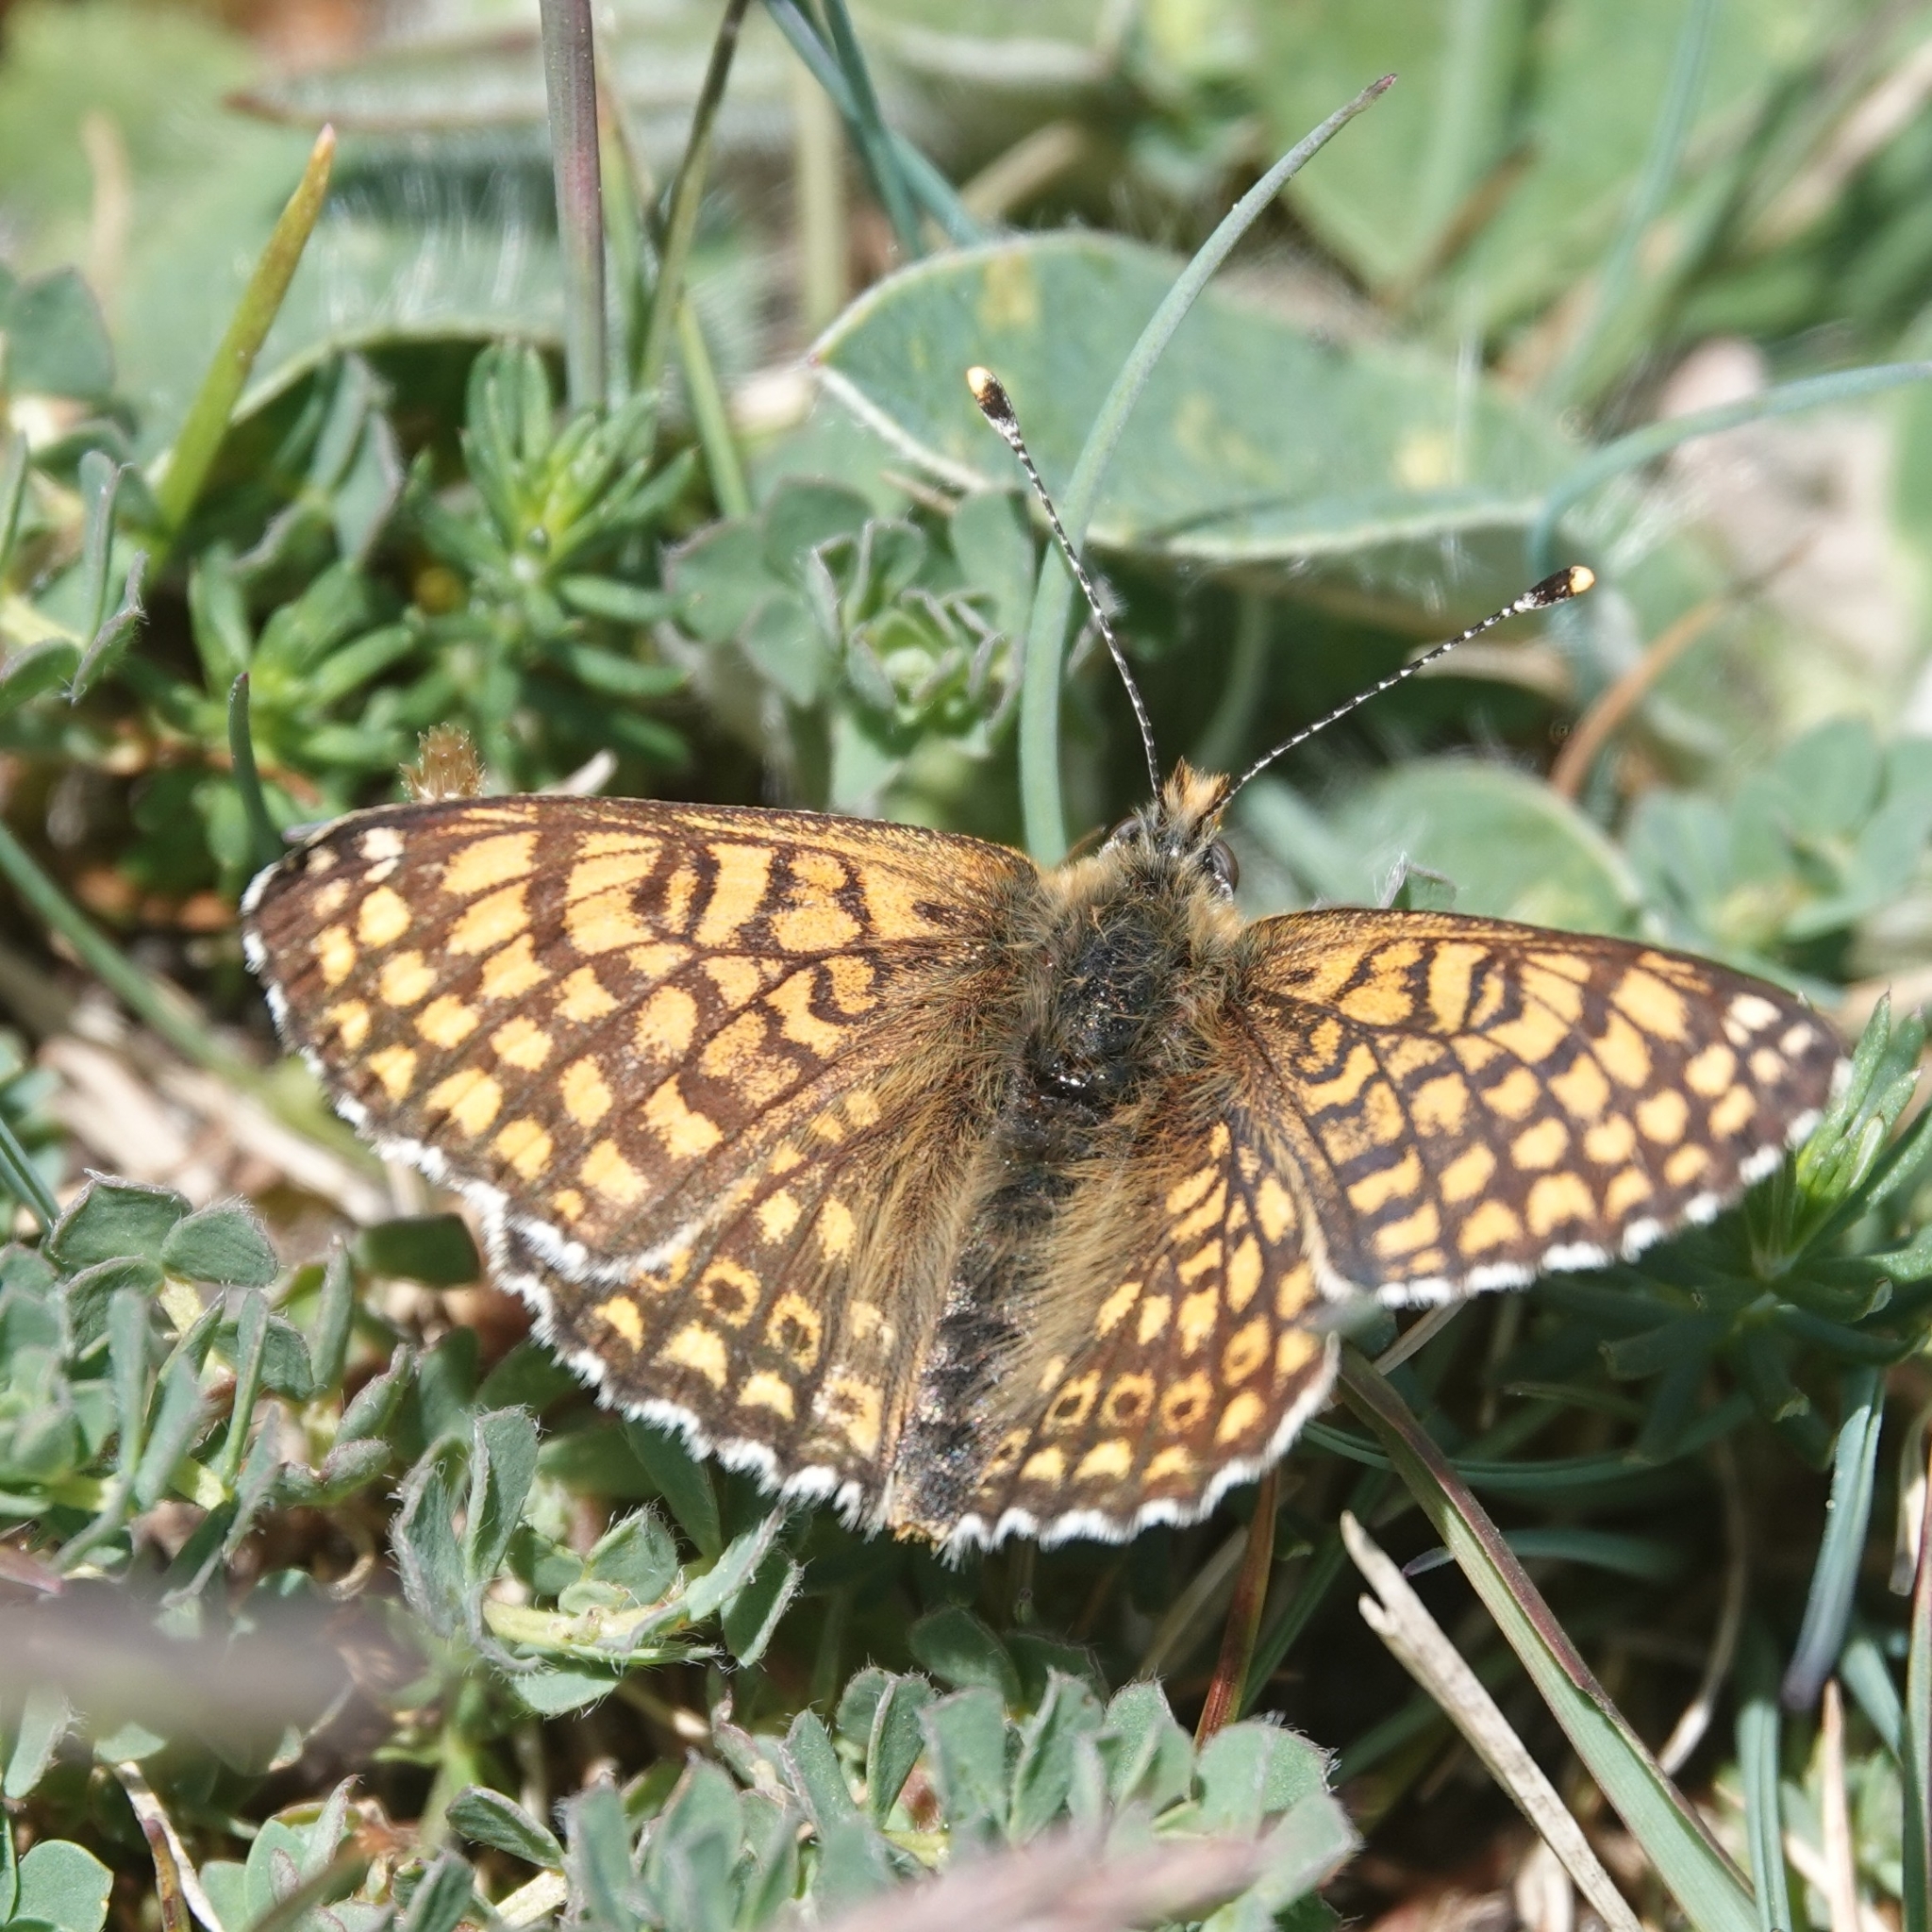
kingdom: Animalia
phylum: Arthropoda
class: Insecta
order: Lepidoptera
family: Nymphalidae
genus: Melitaea
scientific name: Melitaea cinxia
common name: Glanville fritillary
